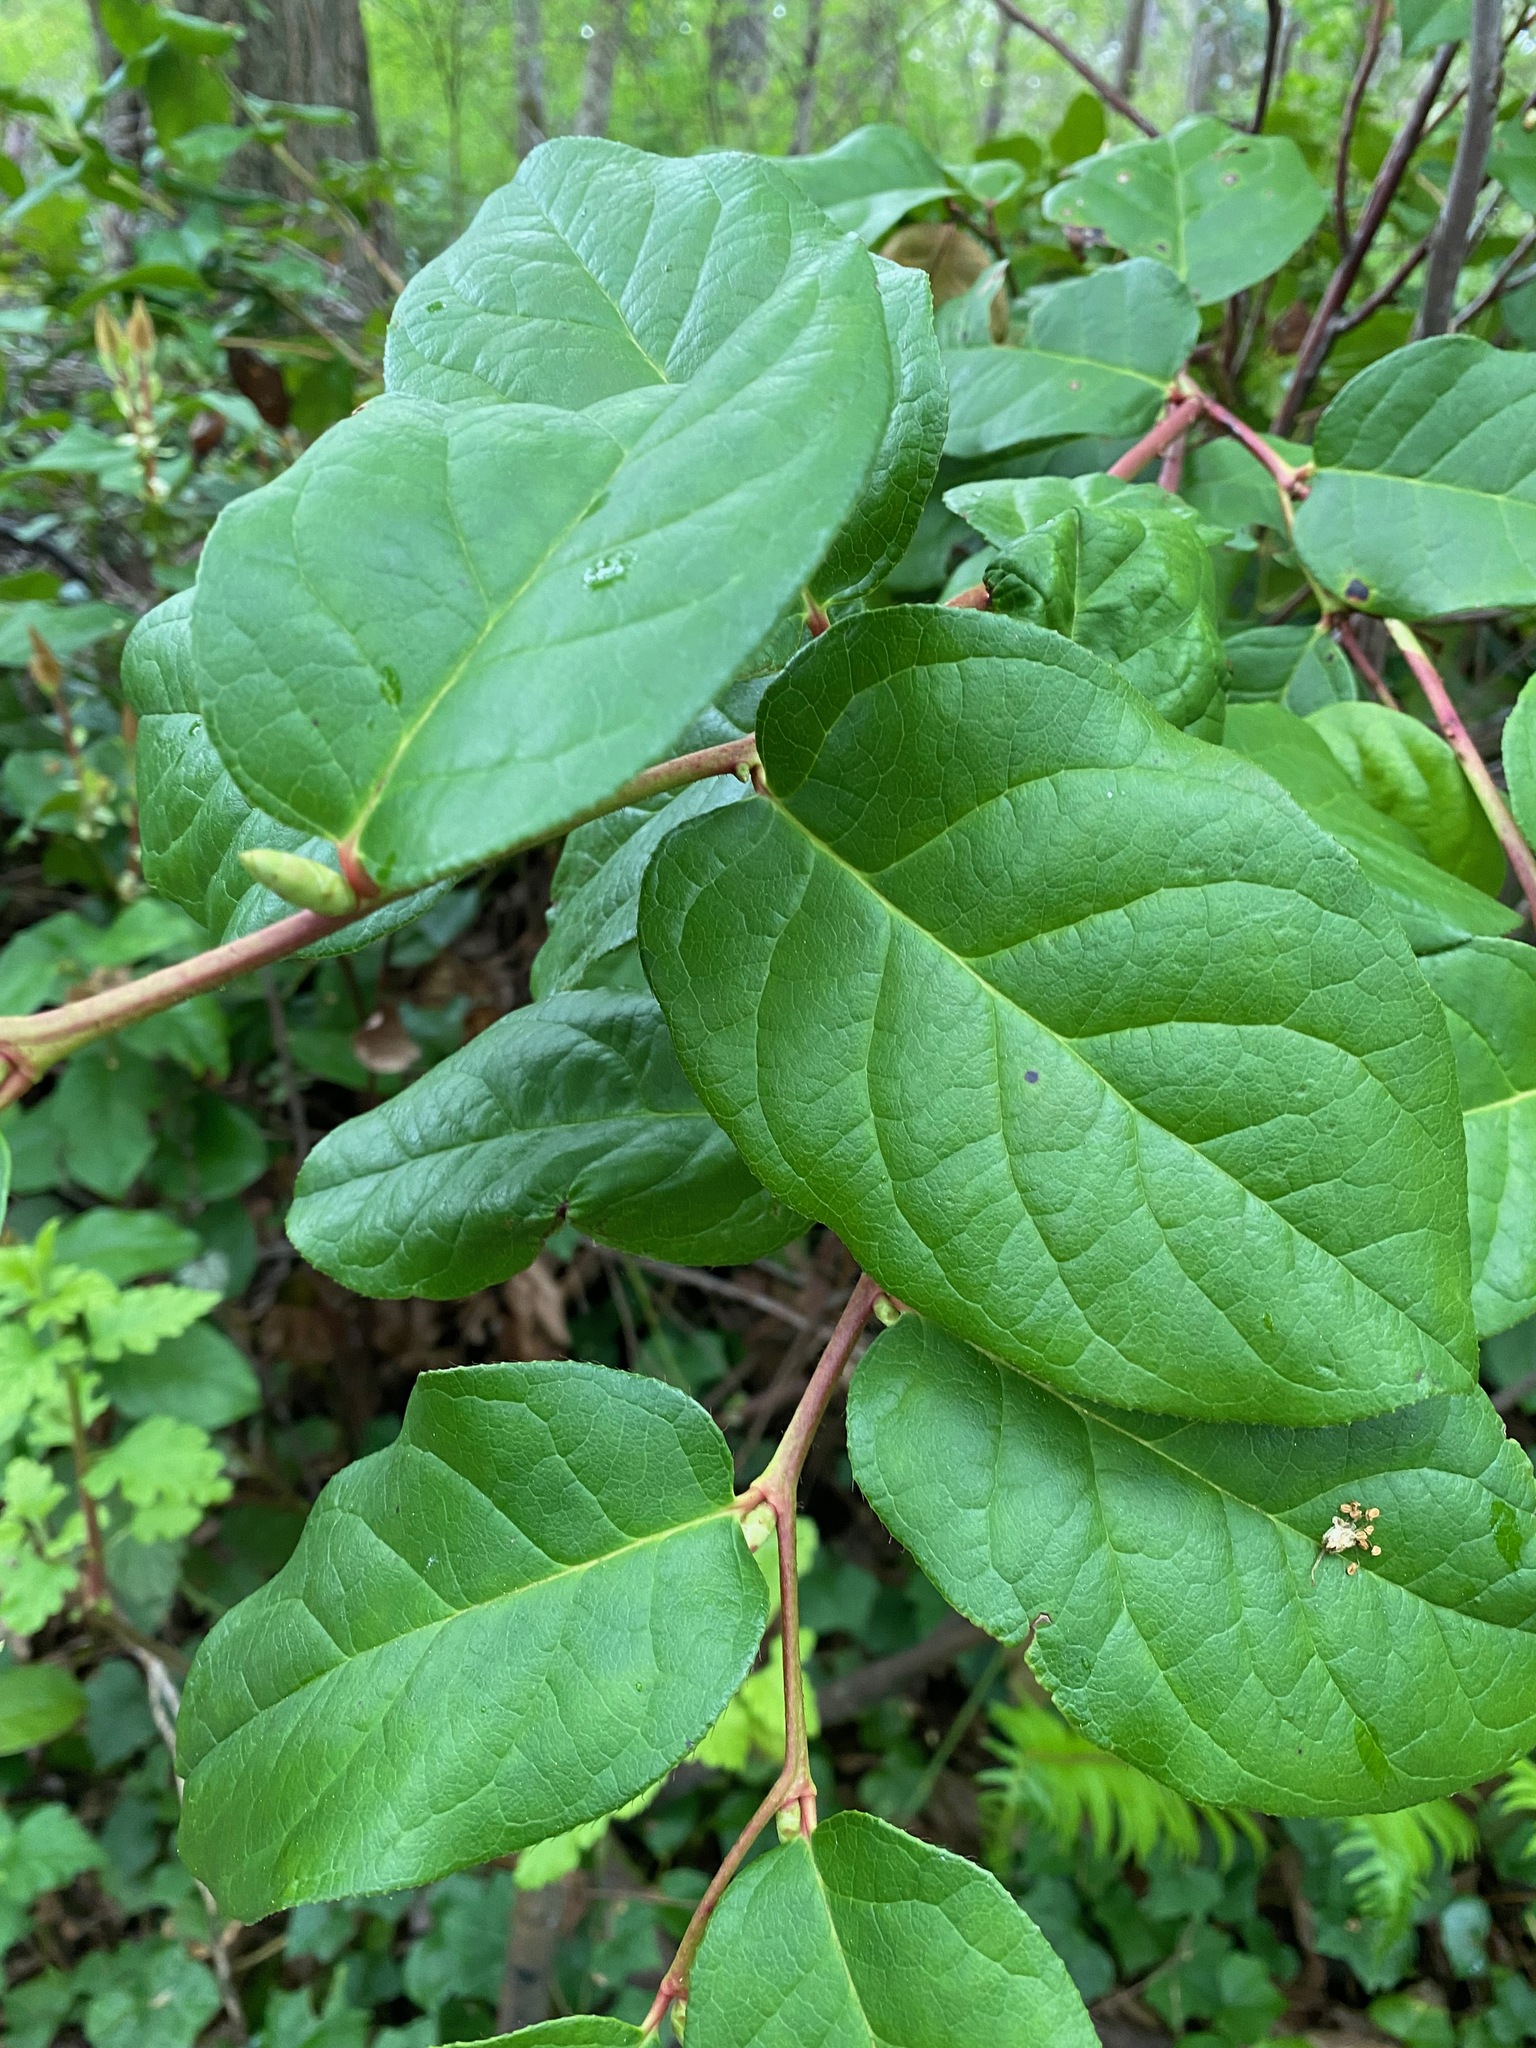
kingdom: Plantae
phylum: Tracheophyta
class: Magnoliopsida
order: Ericales
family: Ericaceae
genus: Gaultheria
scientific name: Gaultheria shallon
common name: Shallon
